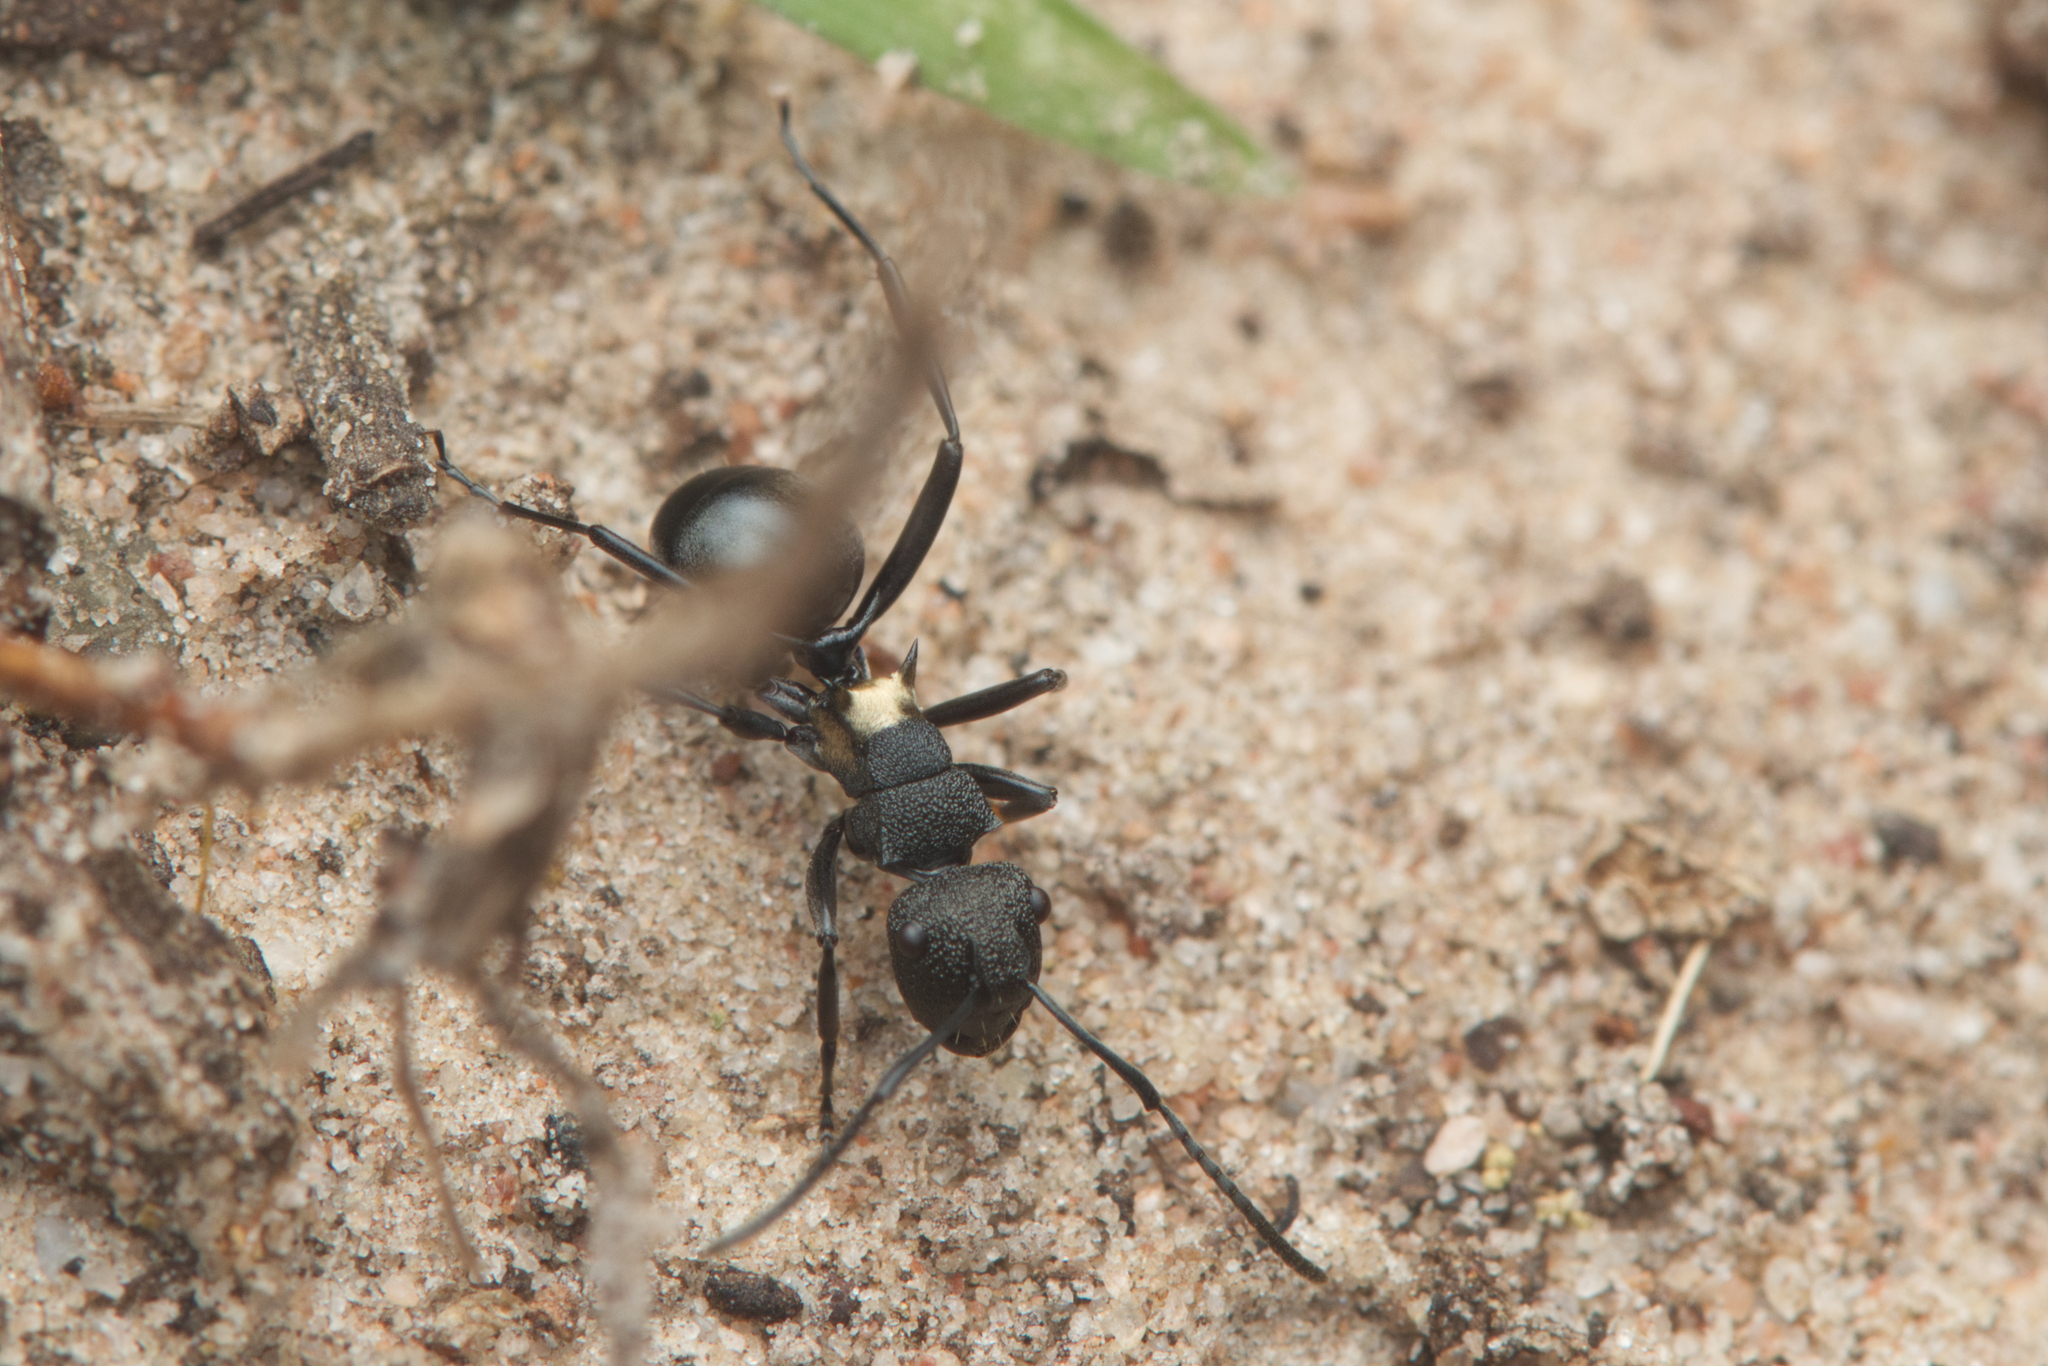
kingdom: Animalia
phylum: Arthropoda
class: Insecta
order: Hymenoptera
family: Formicidae
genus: Polyrhachis
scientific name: Polyrhachis machaon
